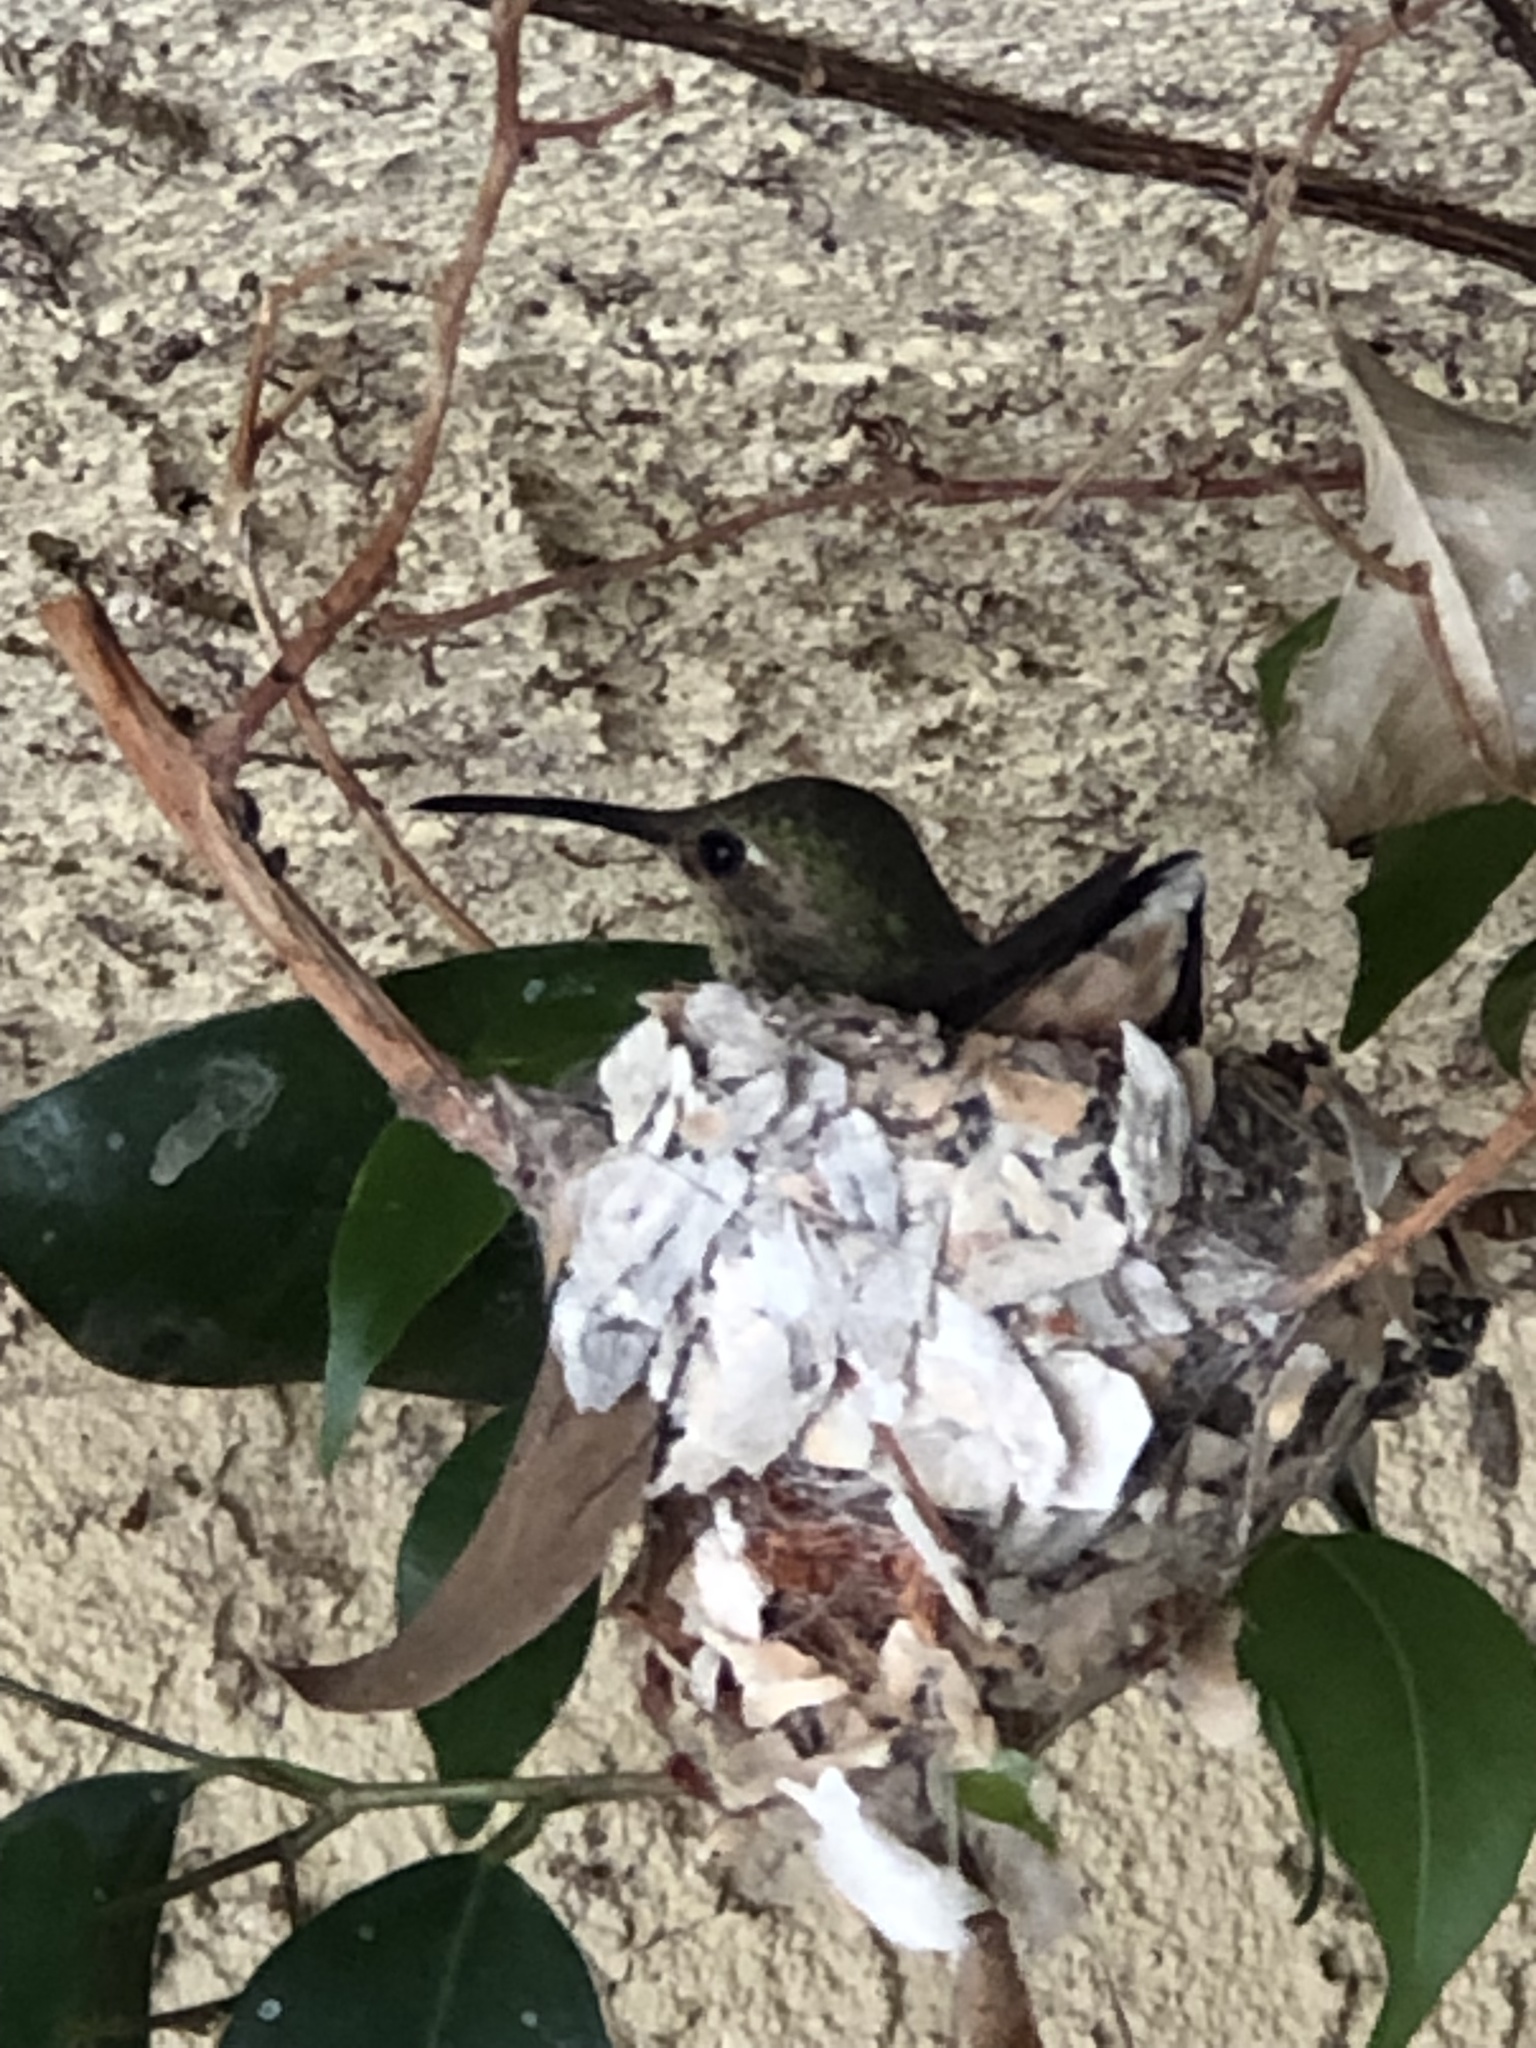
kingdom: Animalia
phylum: Chordata
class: Aves
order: Apodiformes
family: Trochilidae
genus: Selasphorus
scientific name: Selasphorus sasin
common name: Allen's hummingbird
